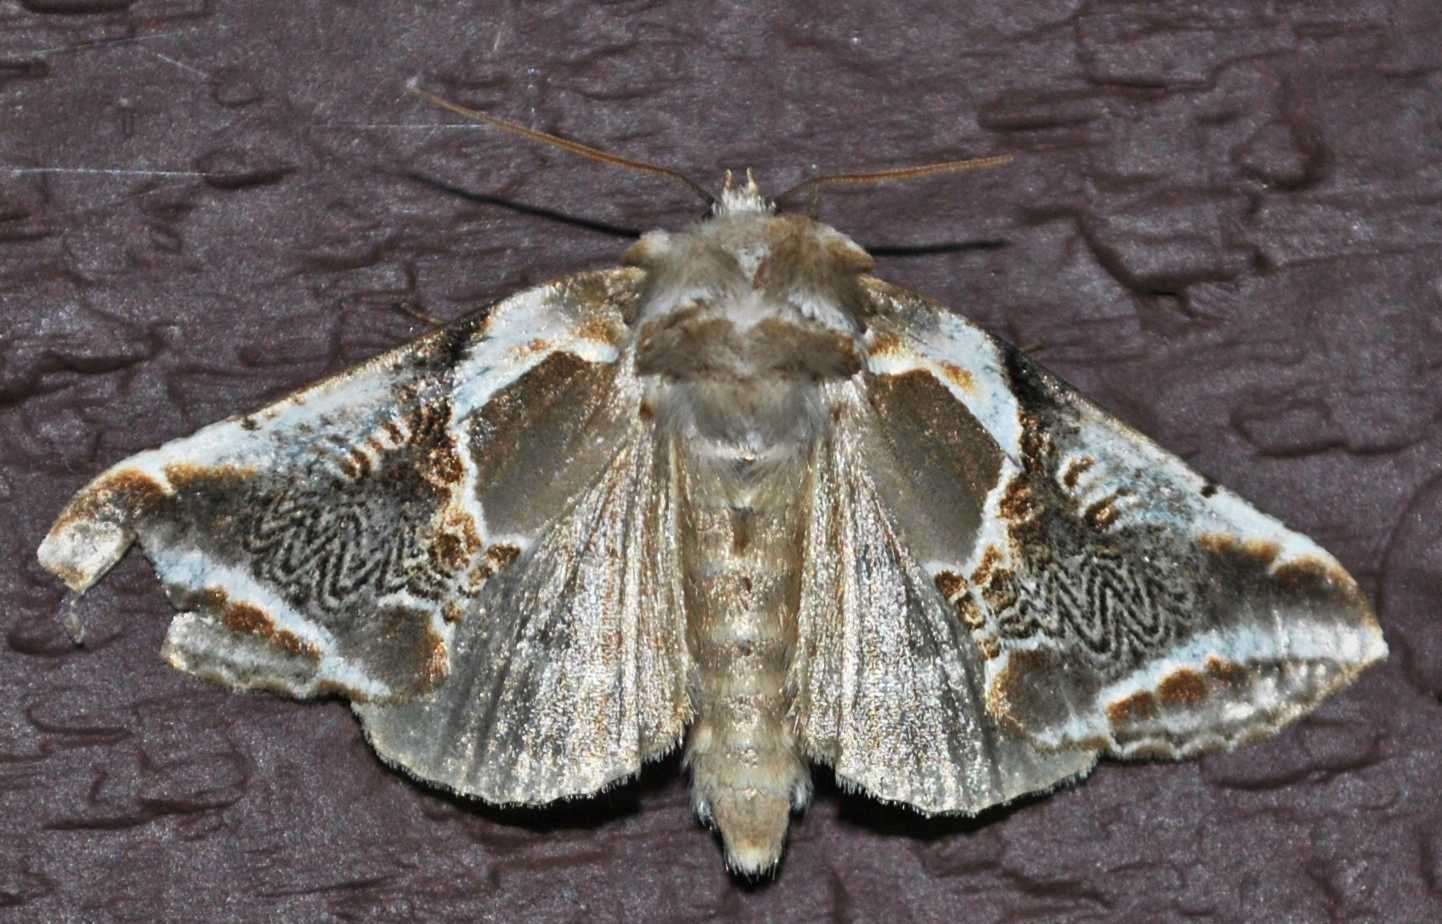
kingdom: Animalia
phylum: Arthropoda
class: Insecta
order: Lepidoptera
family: Drepanidae
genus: Habrosyne
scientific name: Habrosyne scripta
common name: Lettered habrosyne moth
